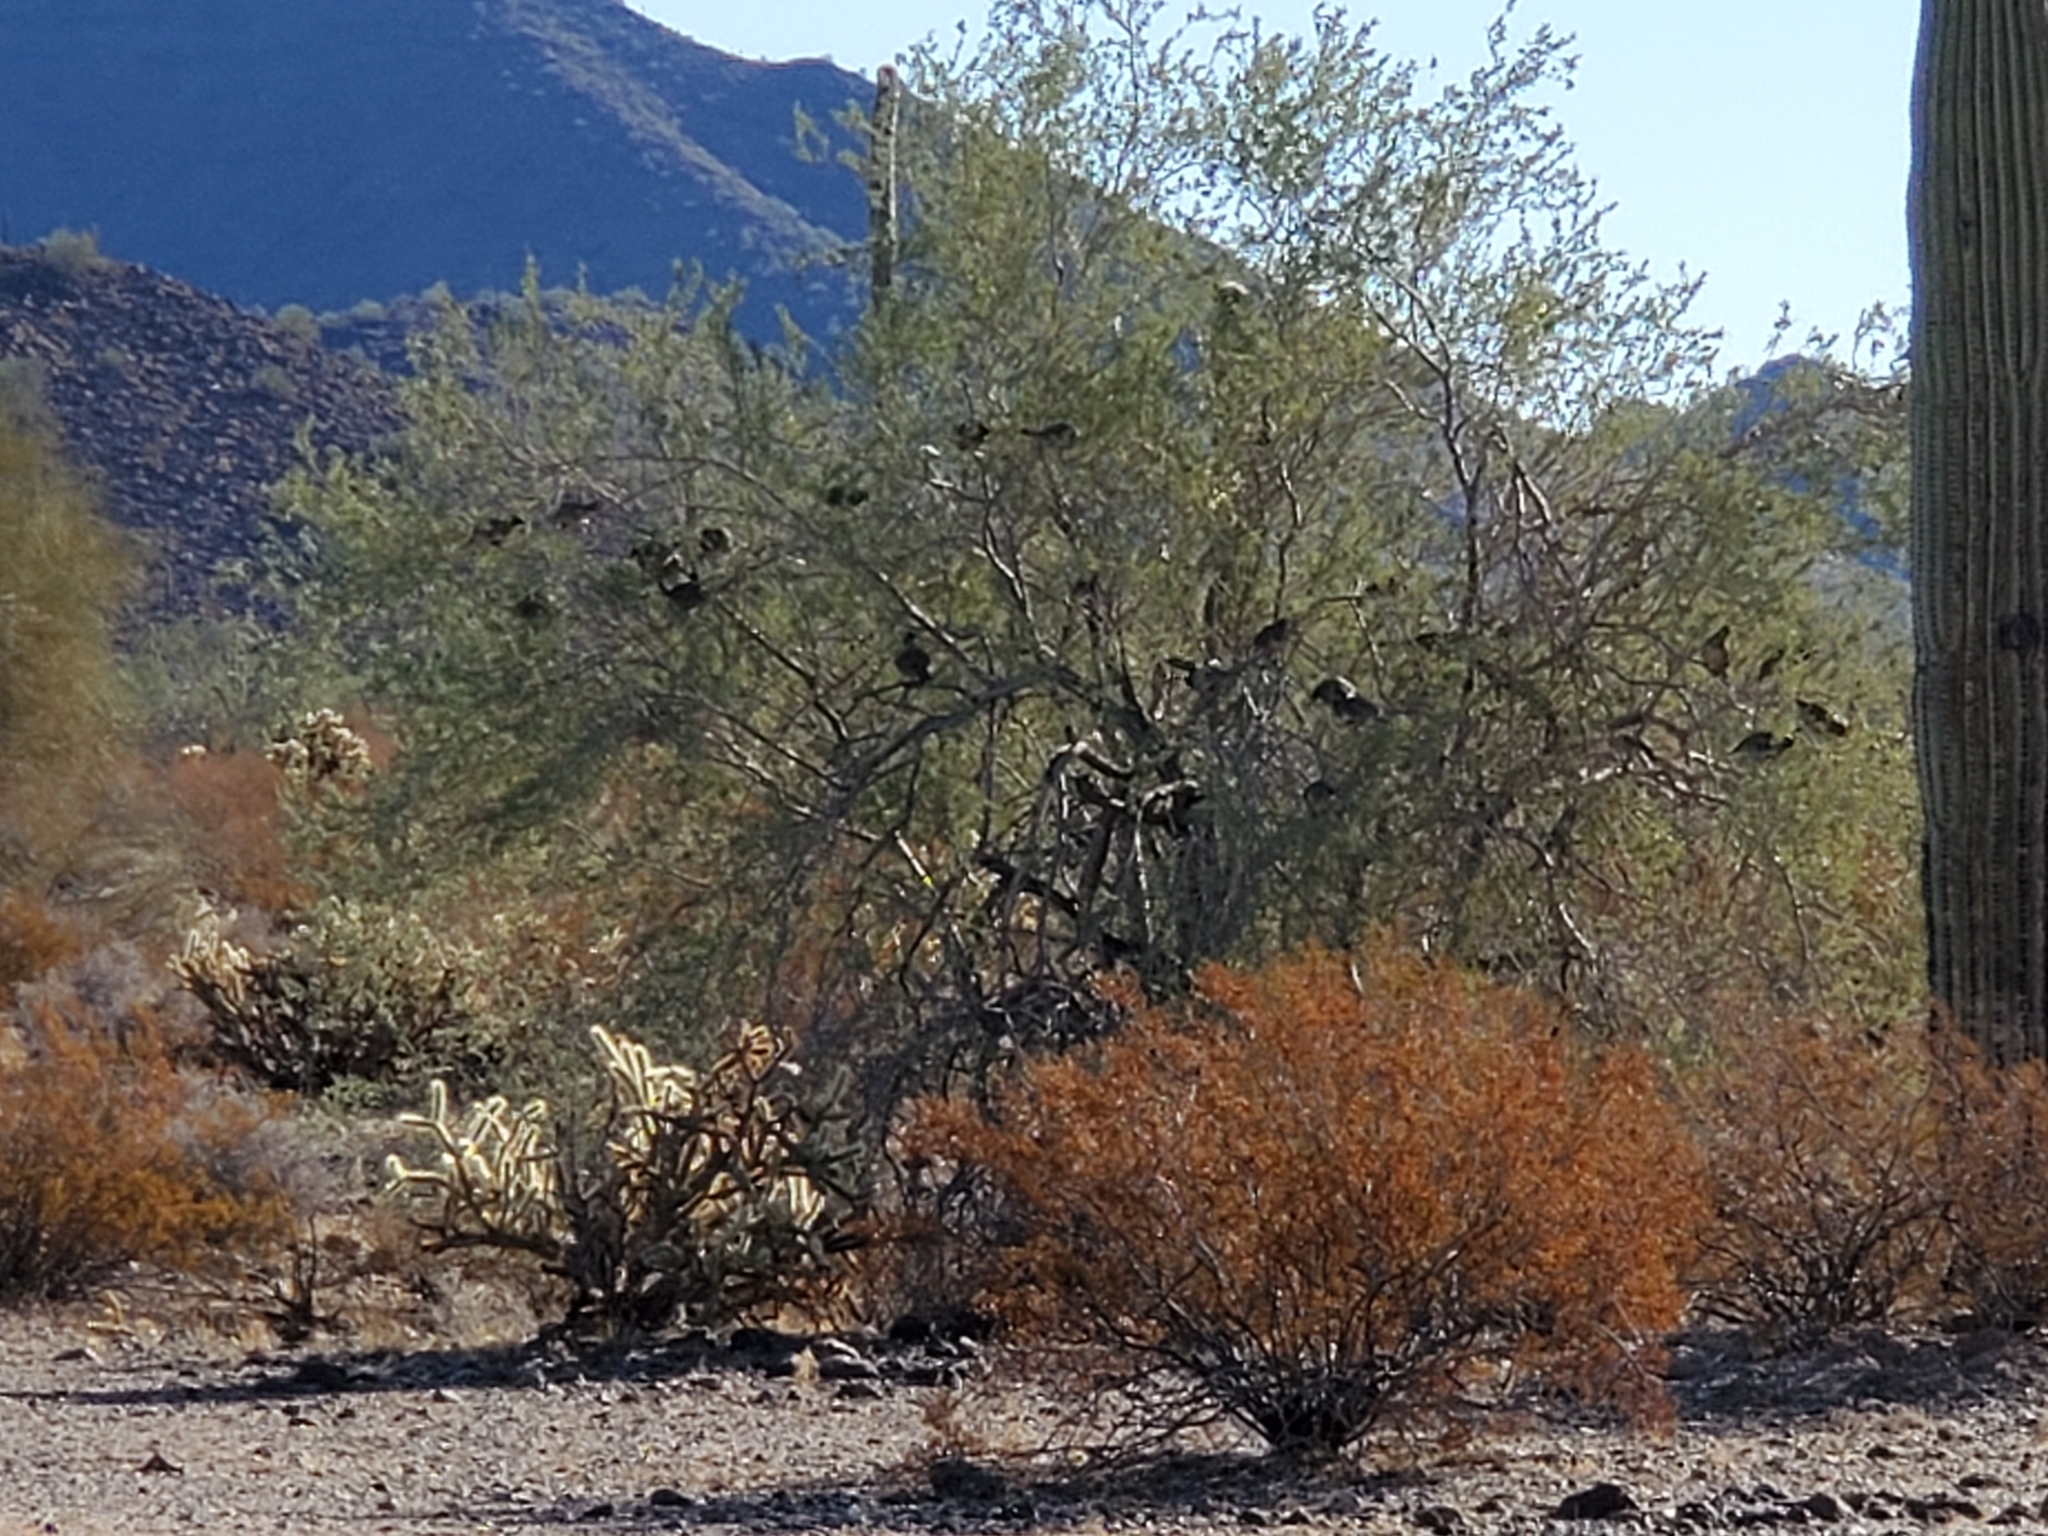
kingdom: Plantae
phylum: Tracheophyta
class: Magnoliopsida
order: Fabales
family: Fabaceae
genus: Olneya
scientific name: Olneya tesota
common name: Desert ironwood
